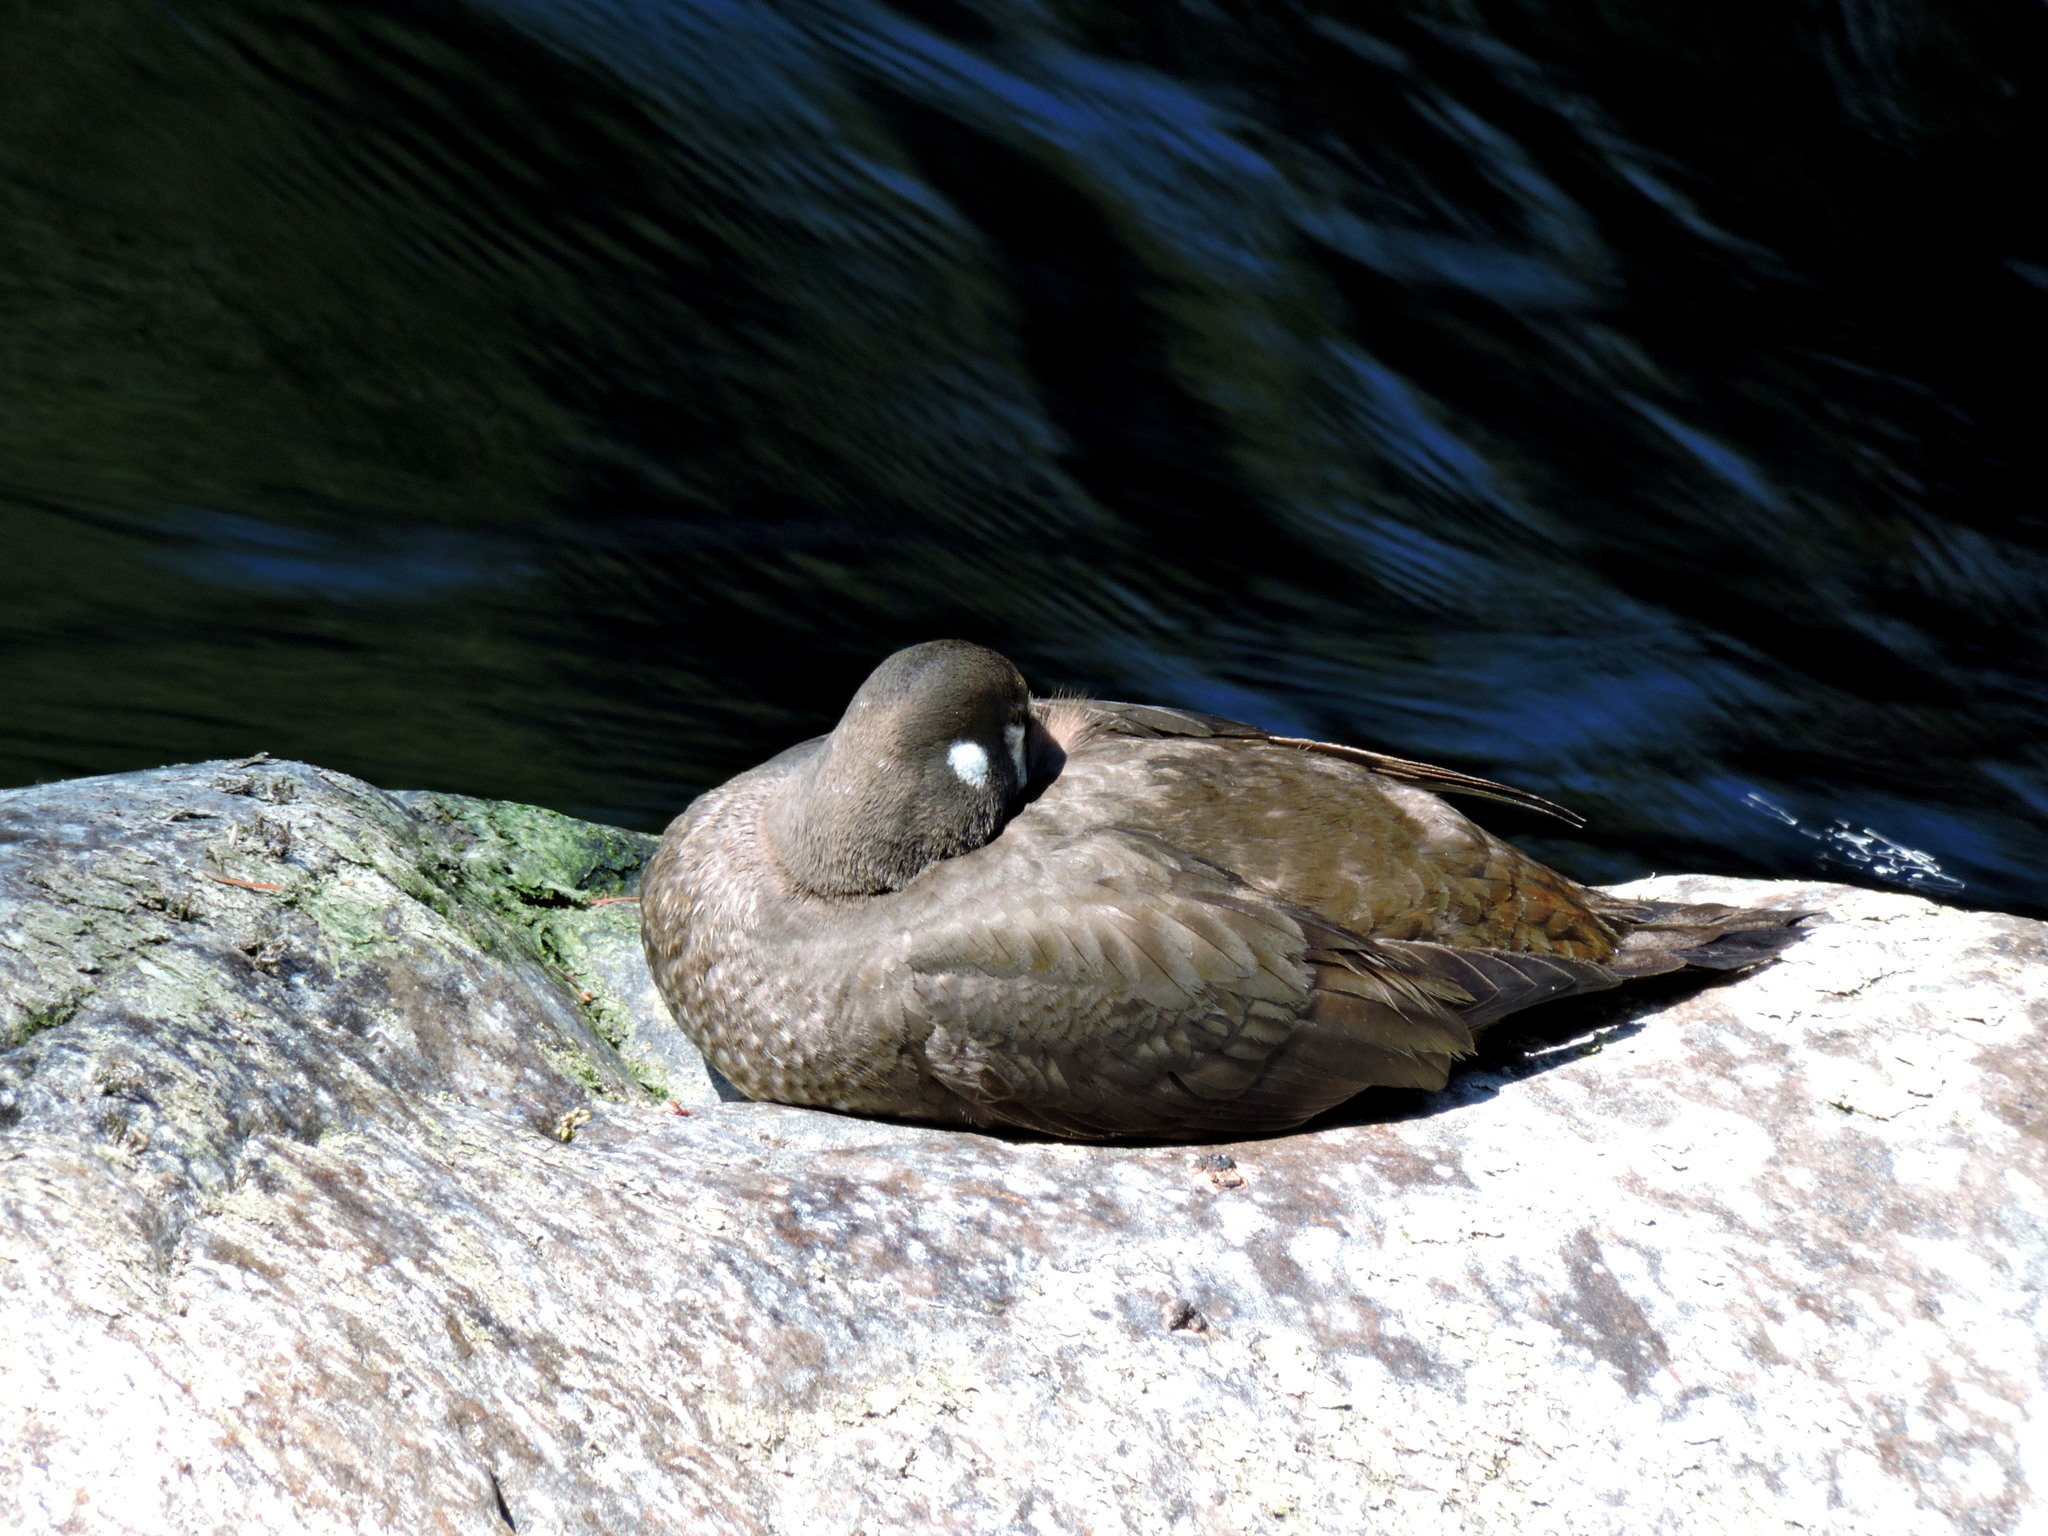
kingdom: Animalia
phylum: Chordata
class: Aves
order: Anseriformes
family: Anatidae
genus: Histrionicus
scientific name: Histrionicus histrionicus
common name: Harlequin duck
